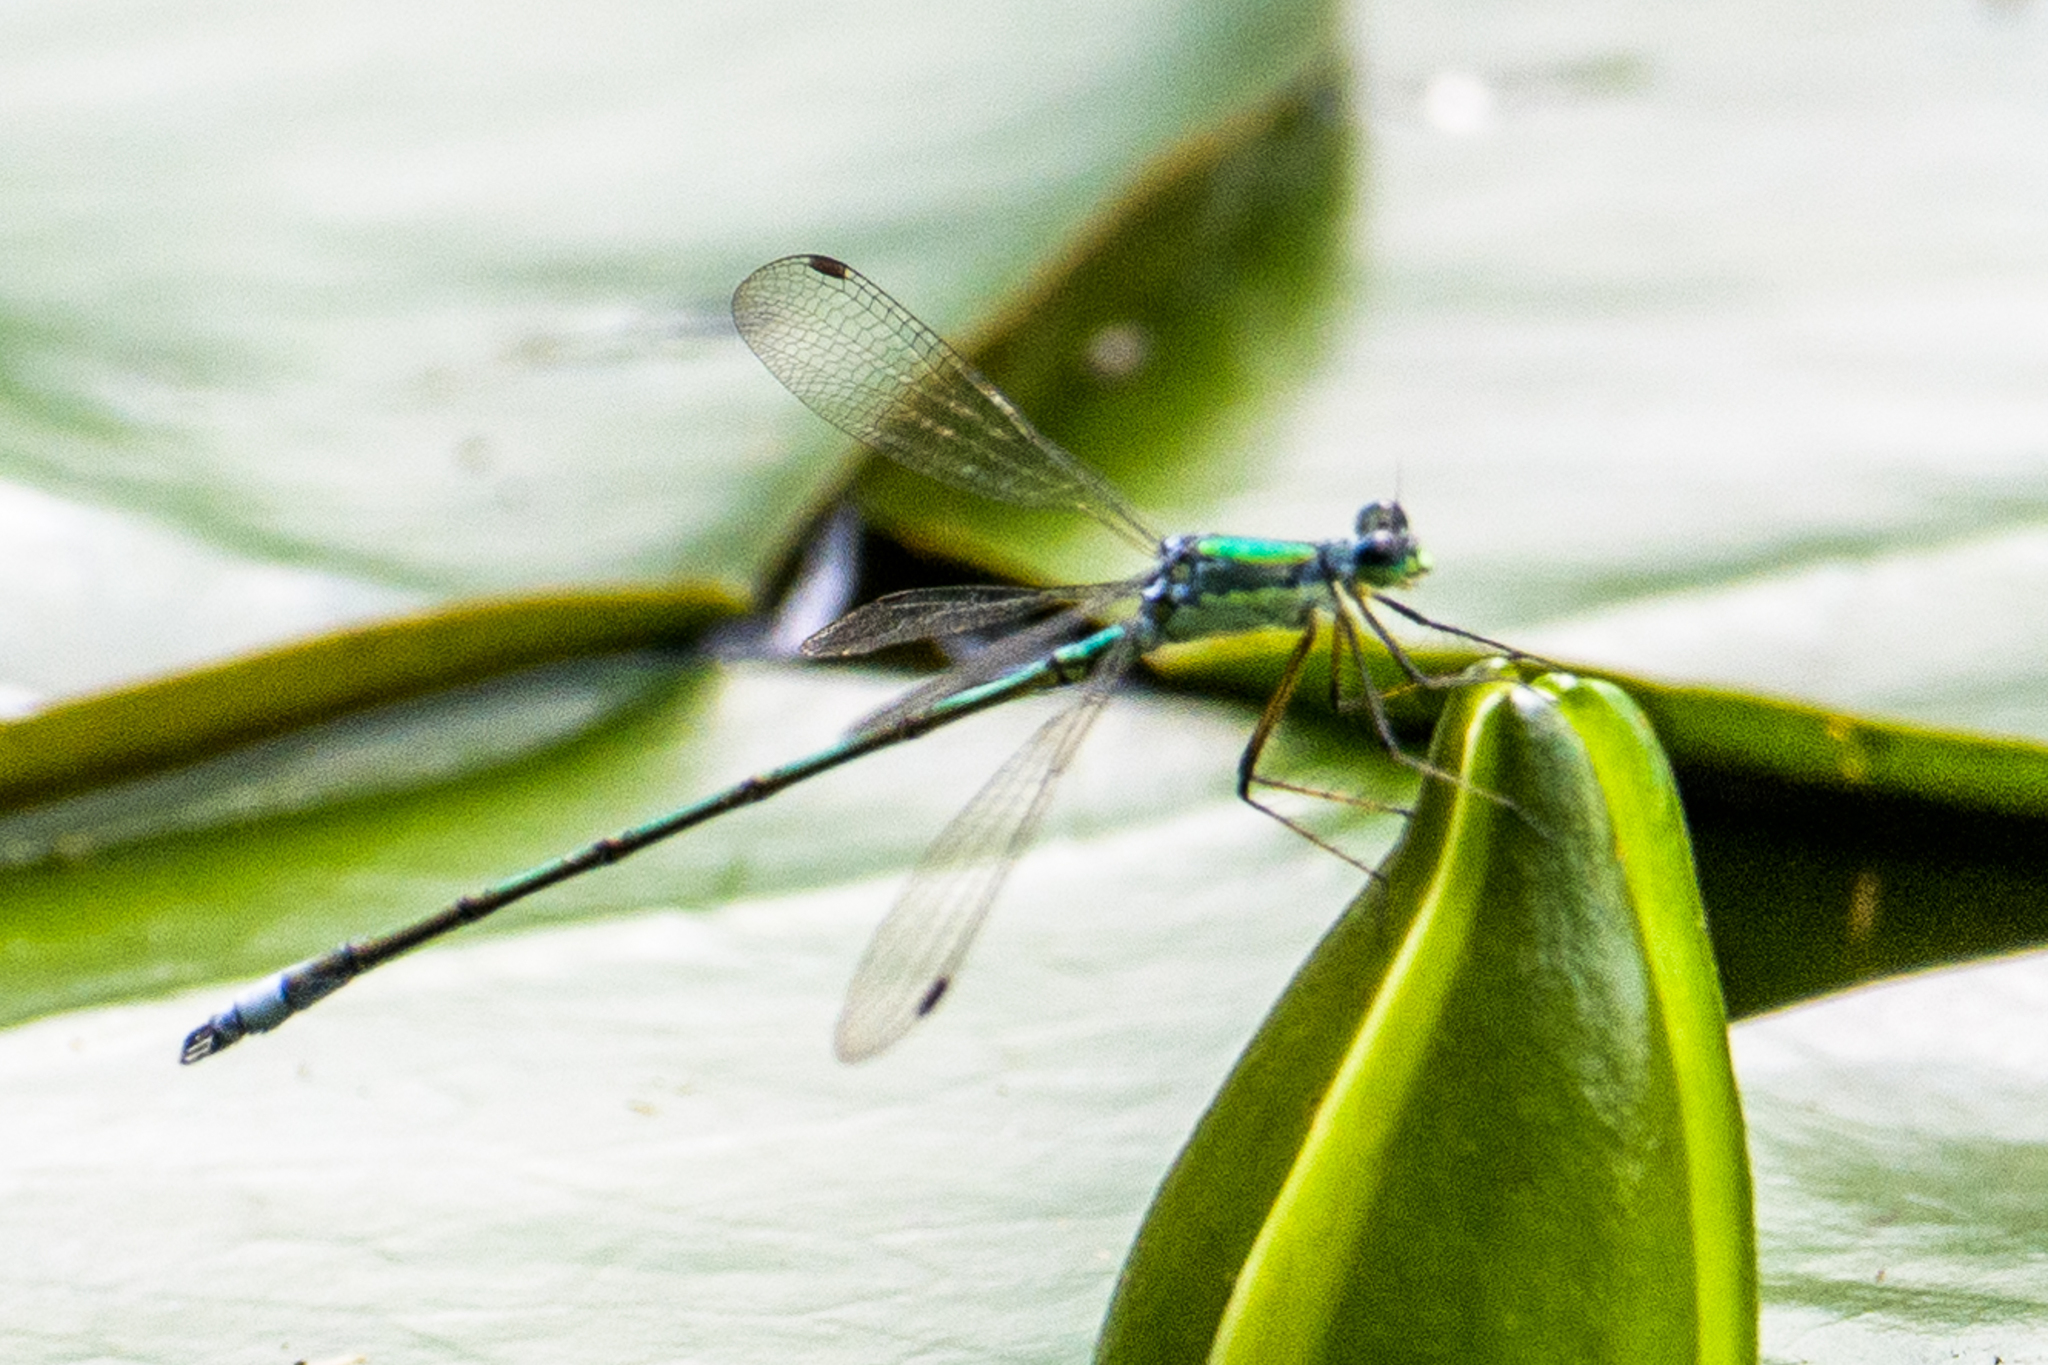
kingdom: Animalia
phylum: Arthropoda
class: Insecta
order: Odonata
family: Lestidae
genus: Lestes
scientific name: Lestes inaequalis
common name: Elegant spreadwing
